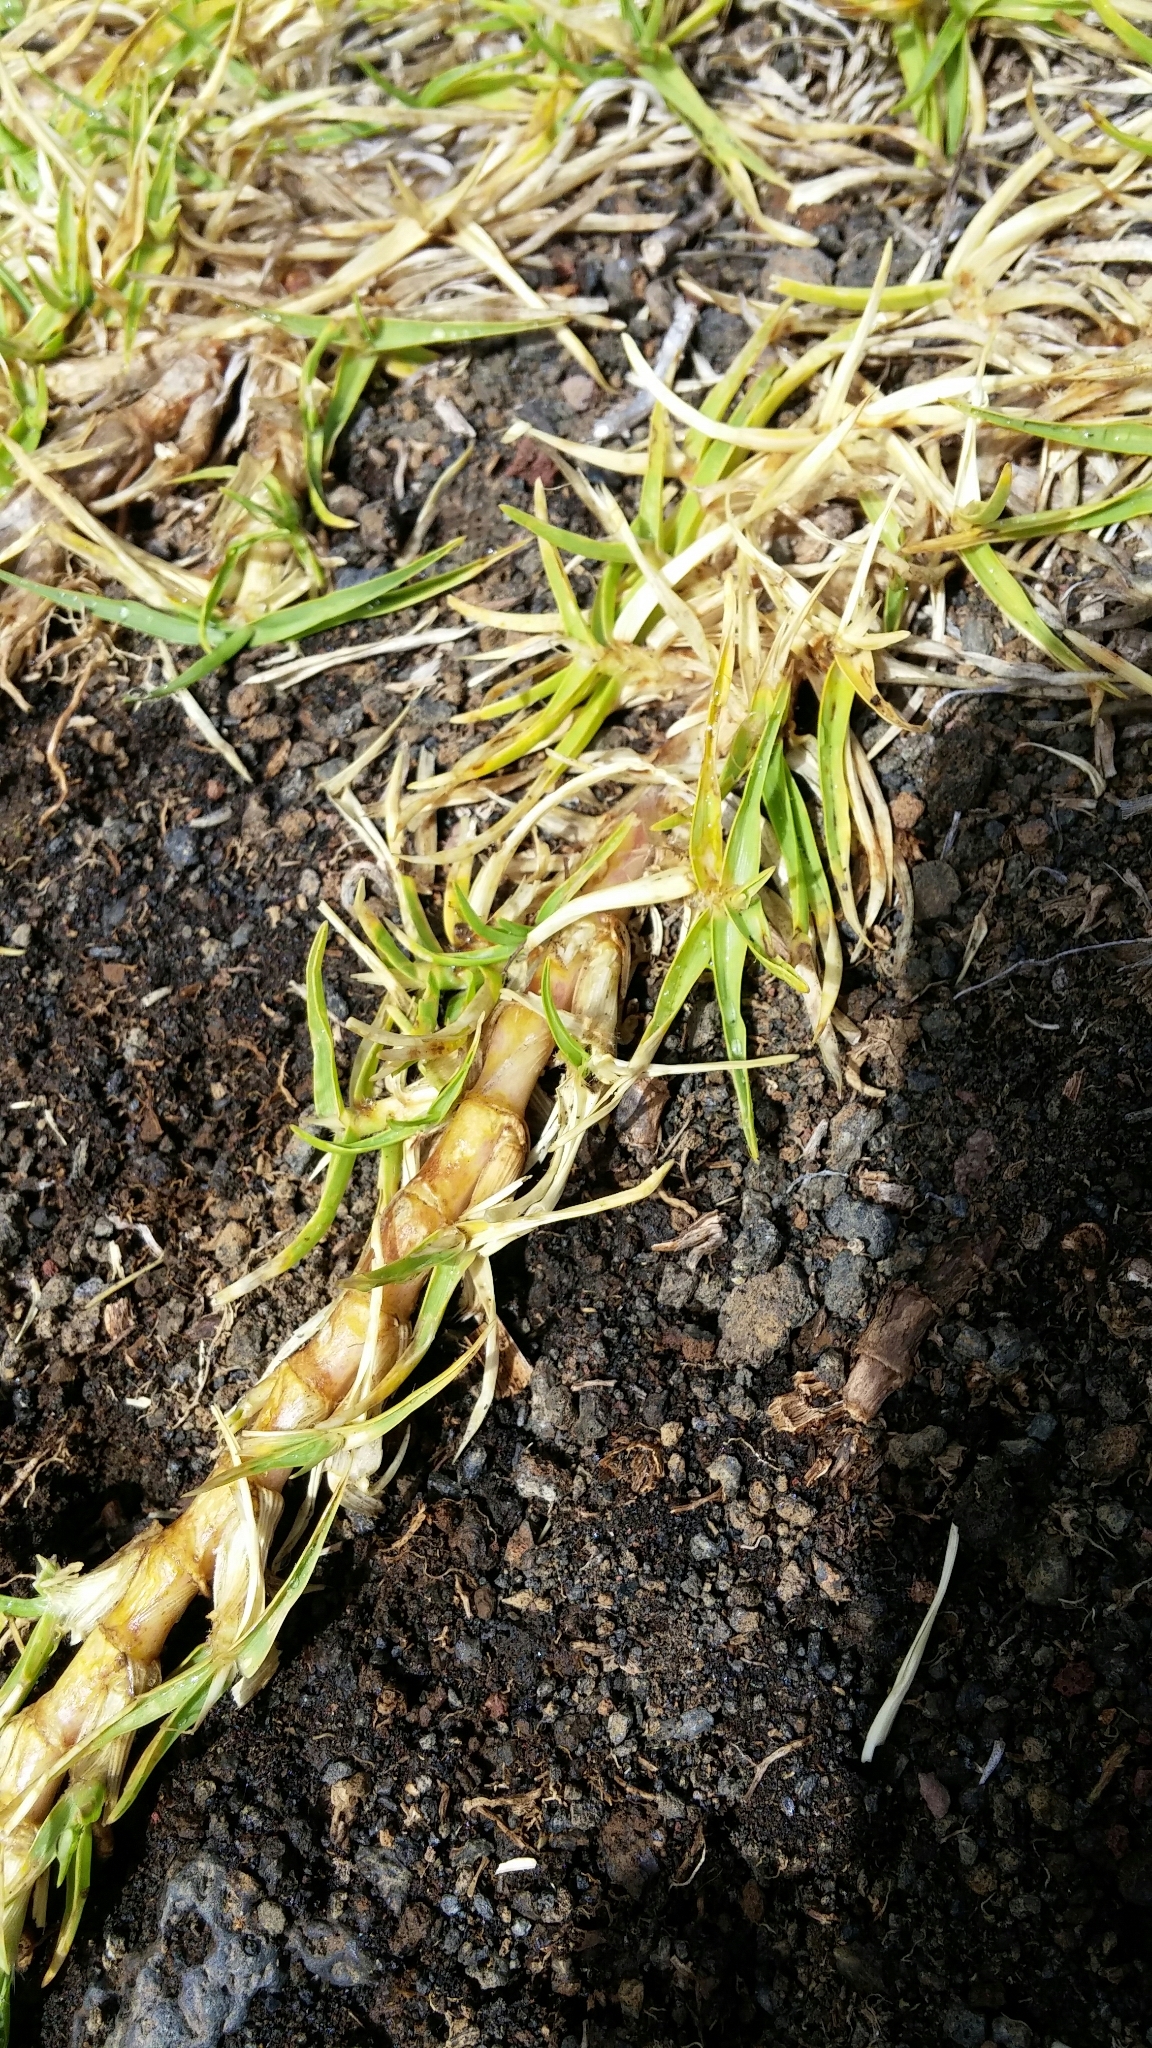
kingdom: Plantae
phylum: Tracheophyta
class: Liliopsida
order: Poales
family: Poaceae
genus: Cenchrus
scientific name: Cenchrus clandestinus
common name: Kikuyugrass
